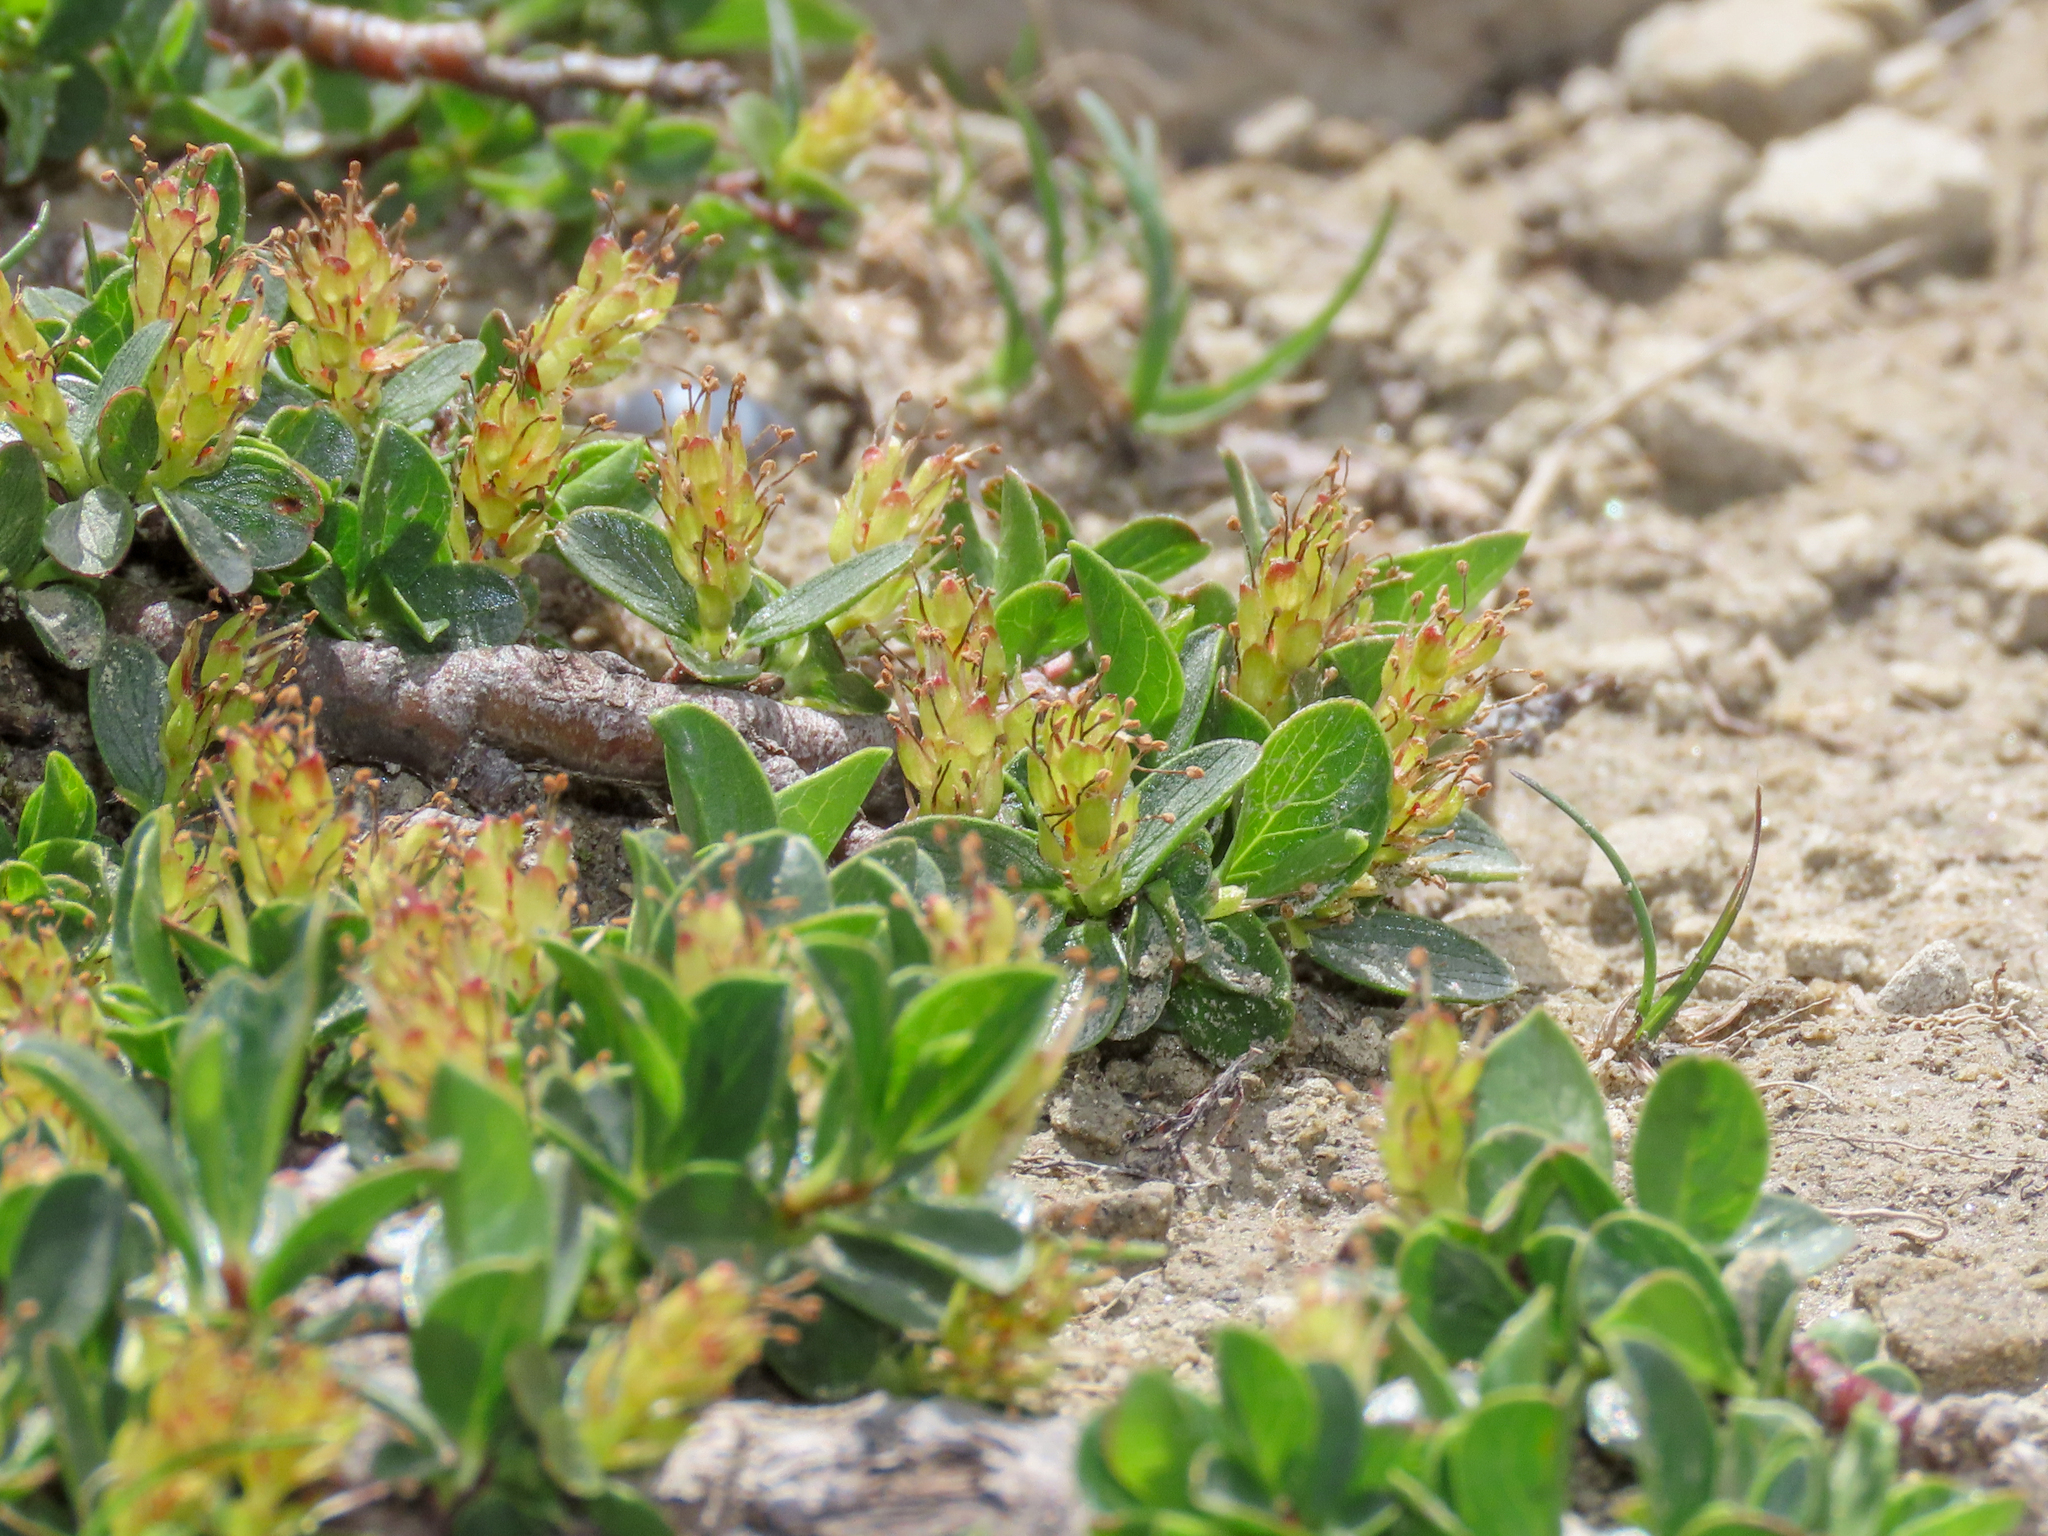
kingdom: Plantae
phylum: Tracheophyta
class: Magnoliopsida
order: Malpighiales
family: Salicaceae
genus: Salix
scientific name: Salix retusa
